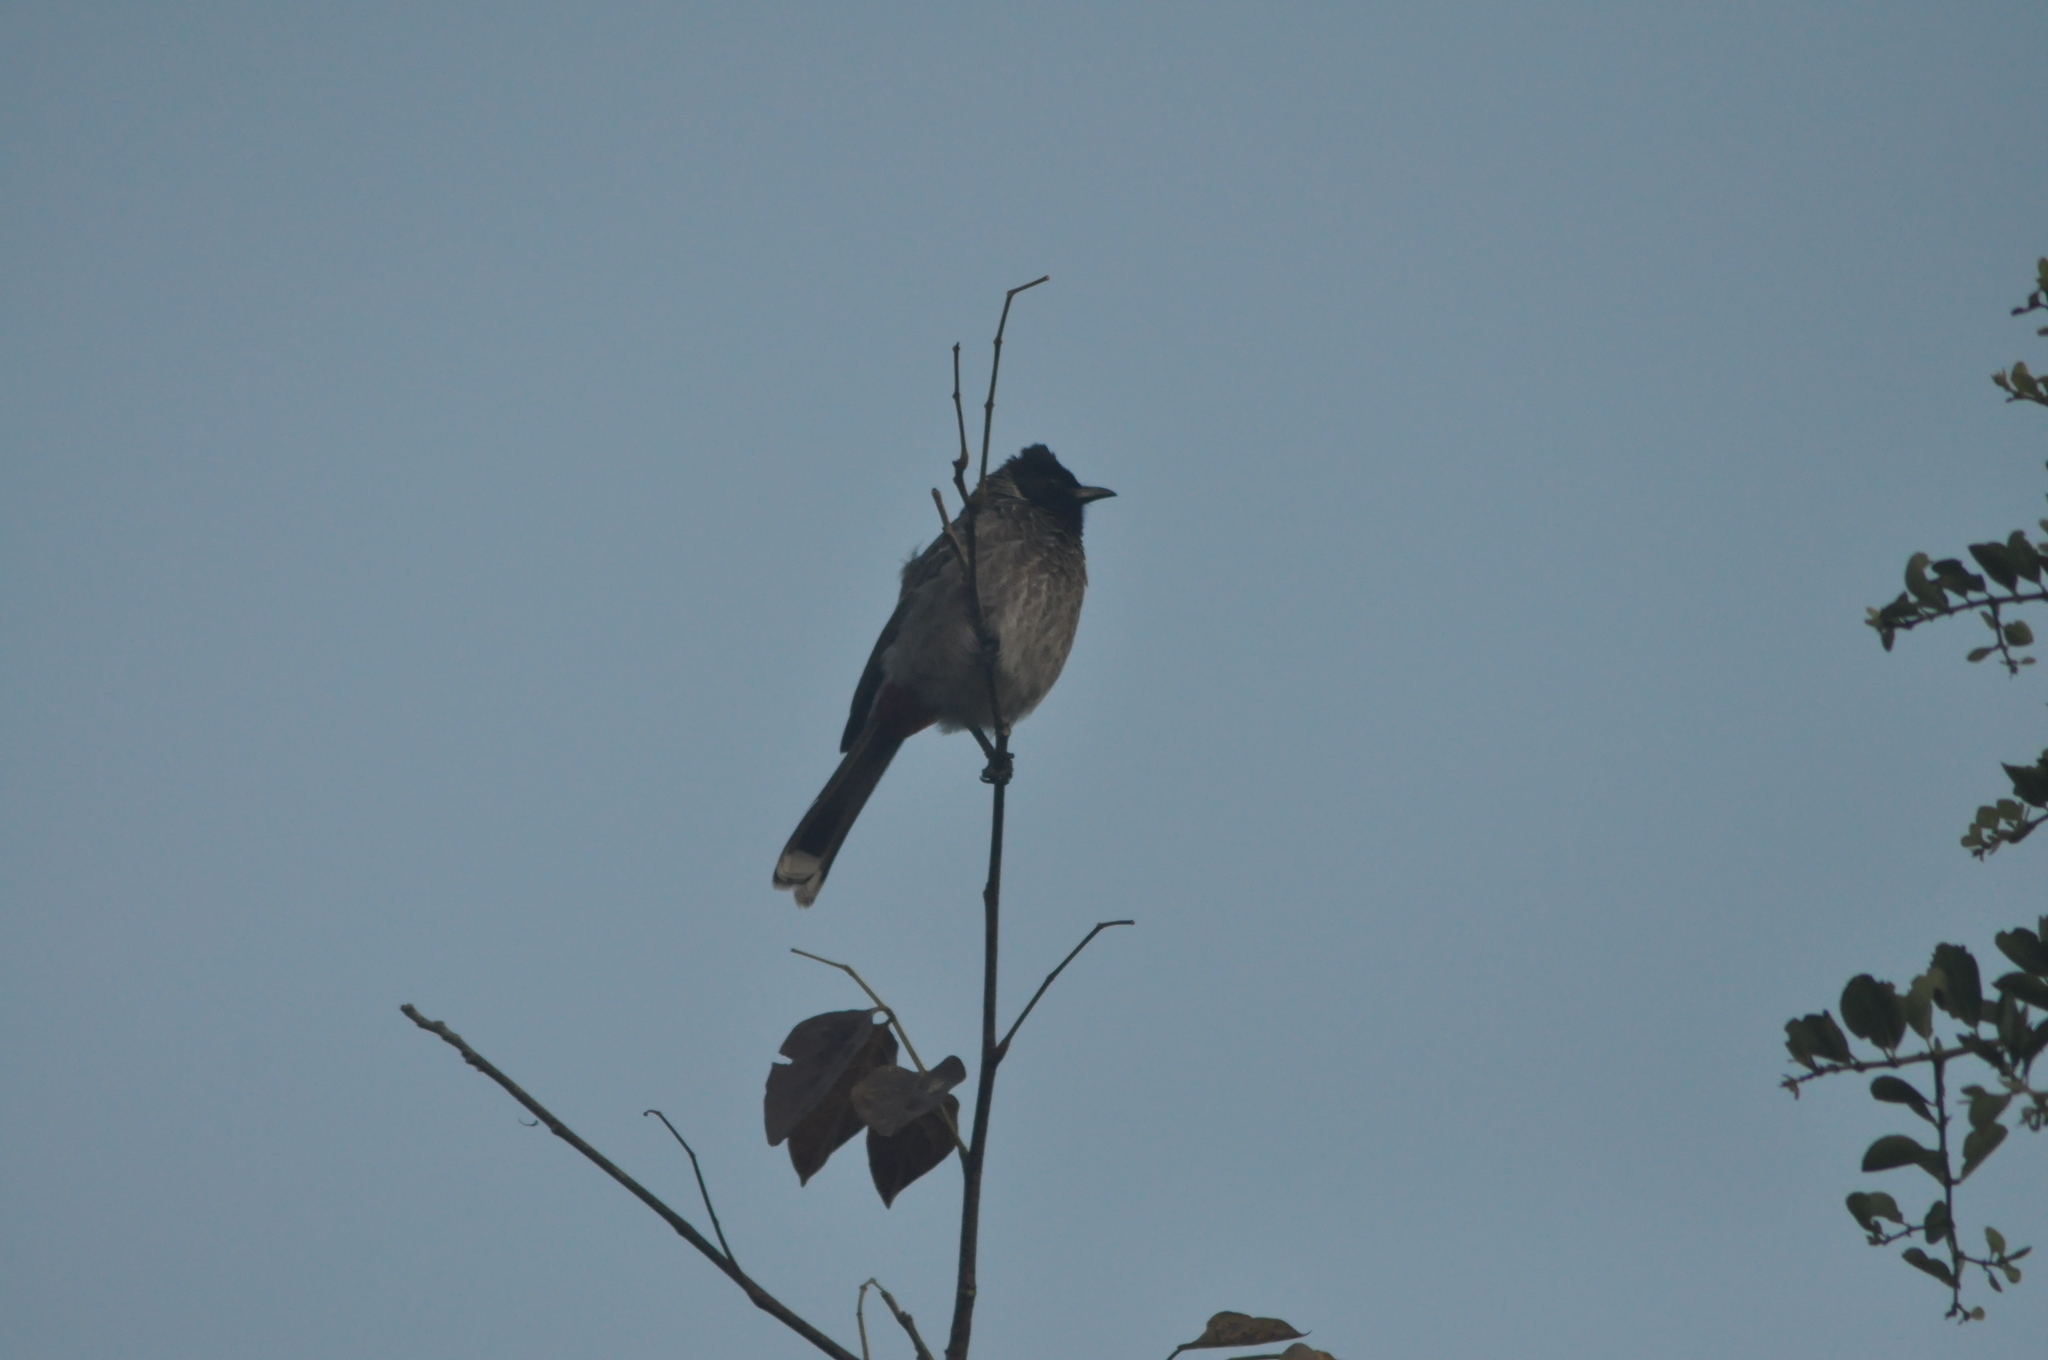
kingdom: Animalia
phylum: Chordata
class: Aves
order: Passeriformes
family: Pycnonotidae
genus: Pycnonotus
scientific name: Pycnonotus cafer
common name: Red-vented bulbul
